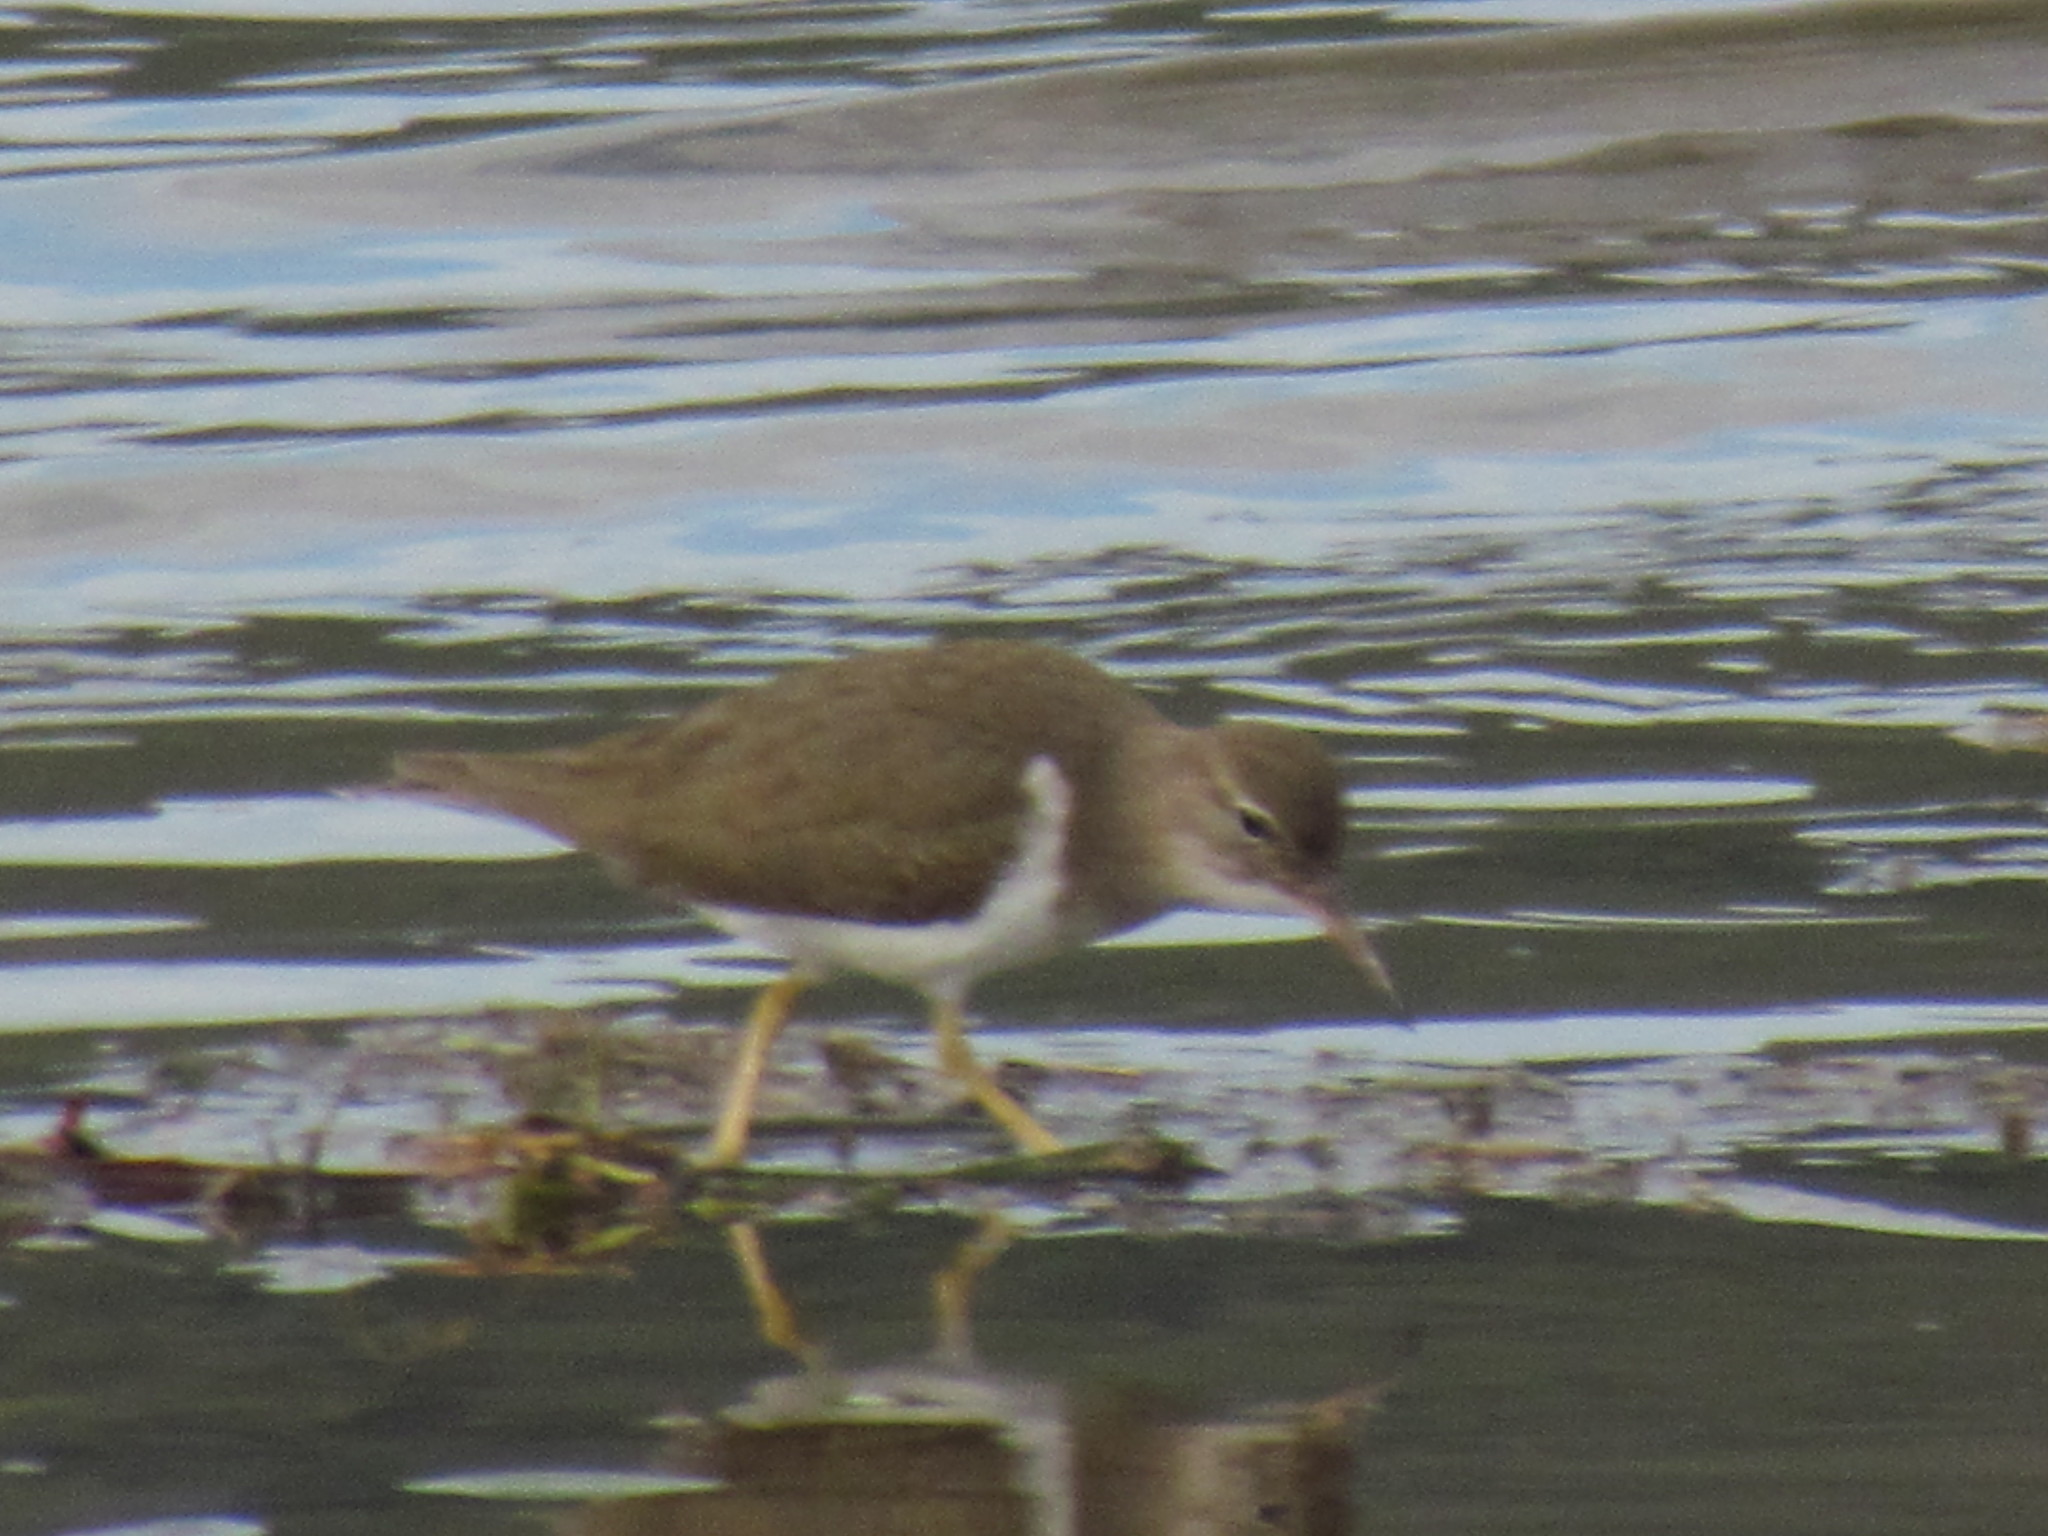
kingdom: Animalia
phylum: Chordata
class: Aves
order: Charadriiformes
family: Scolopacidae
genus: Actitis
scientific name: Actitis macularius
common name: Spotted sandpiper
